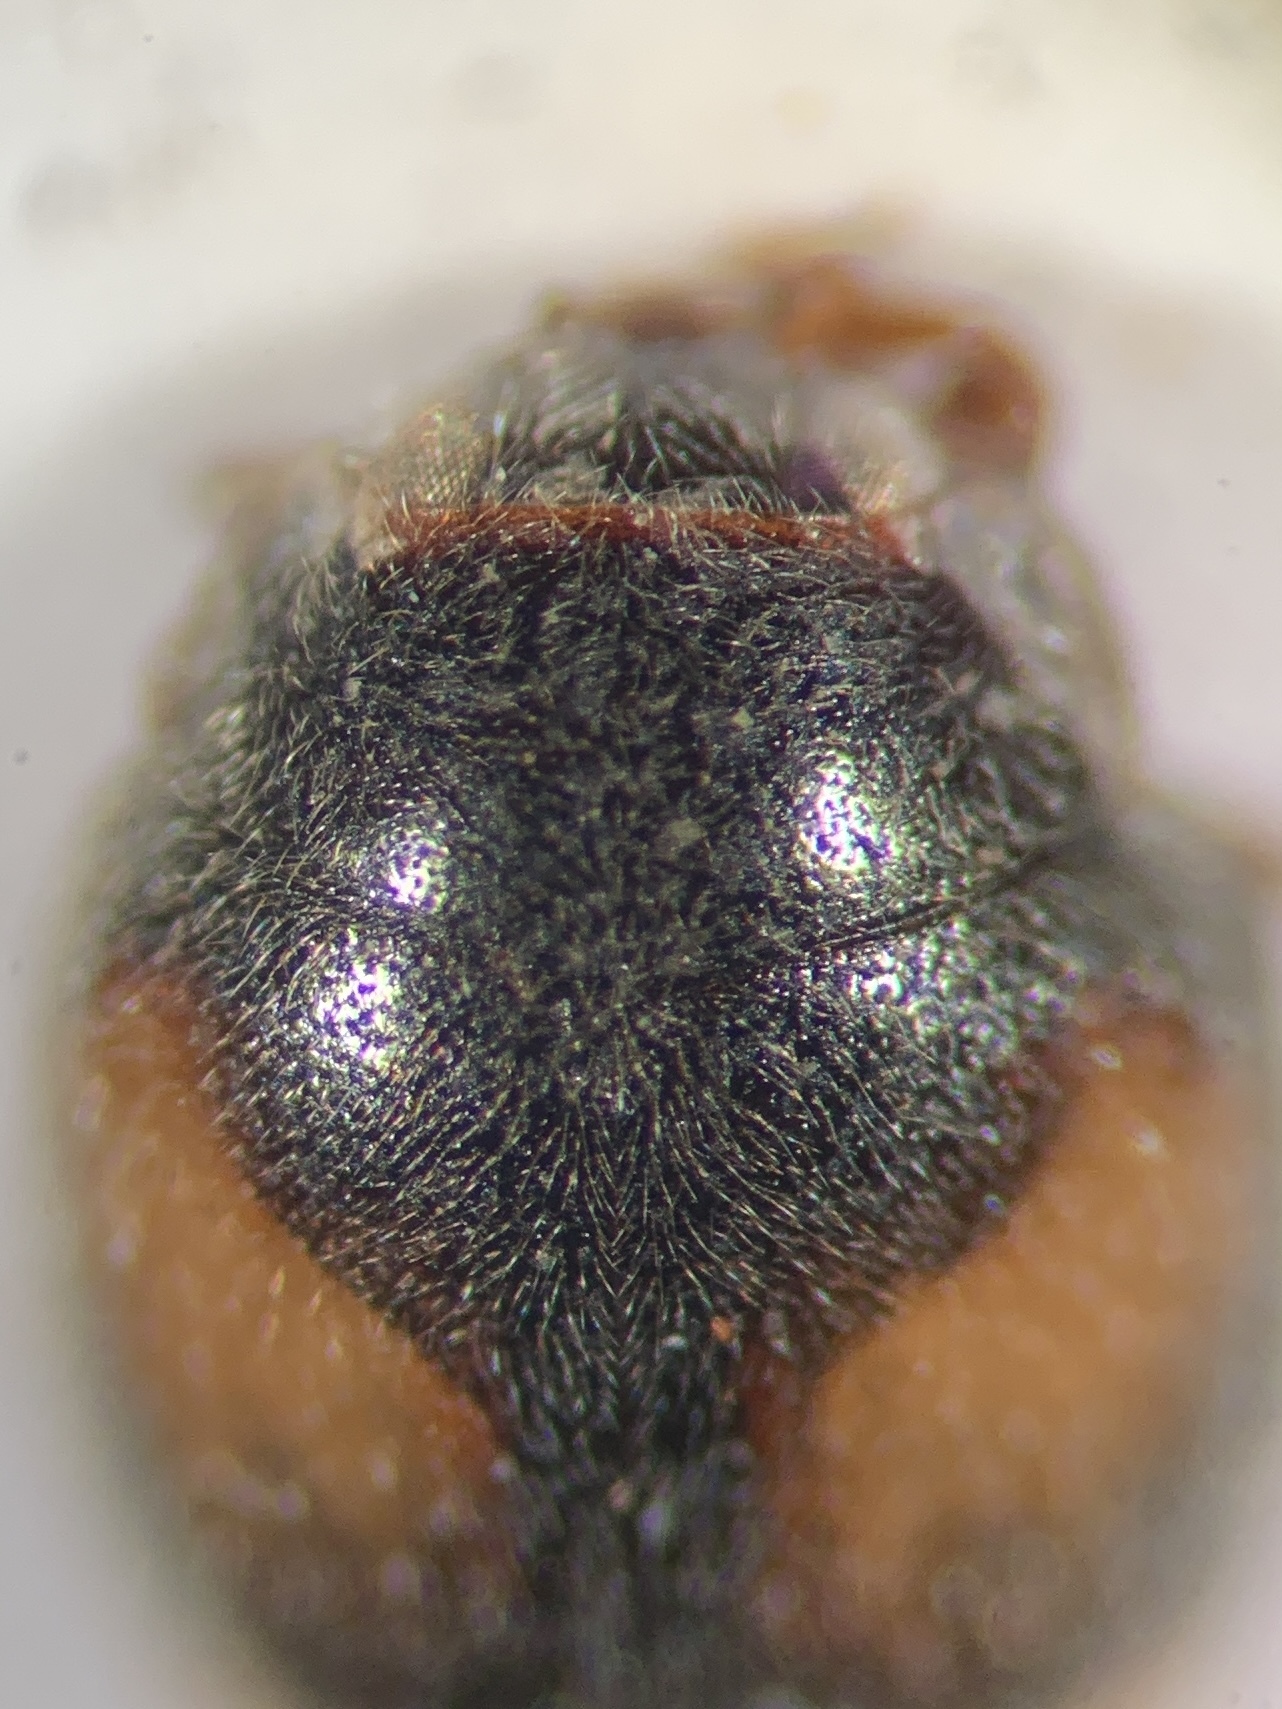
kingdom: Animalia
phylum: Arthropoda
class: Insecta
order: Coleoptera
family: Coccinellidae
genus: Nephus
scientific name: Nephus quadrimaculatus
